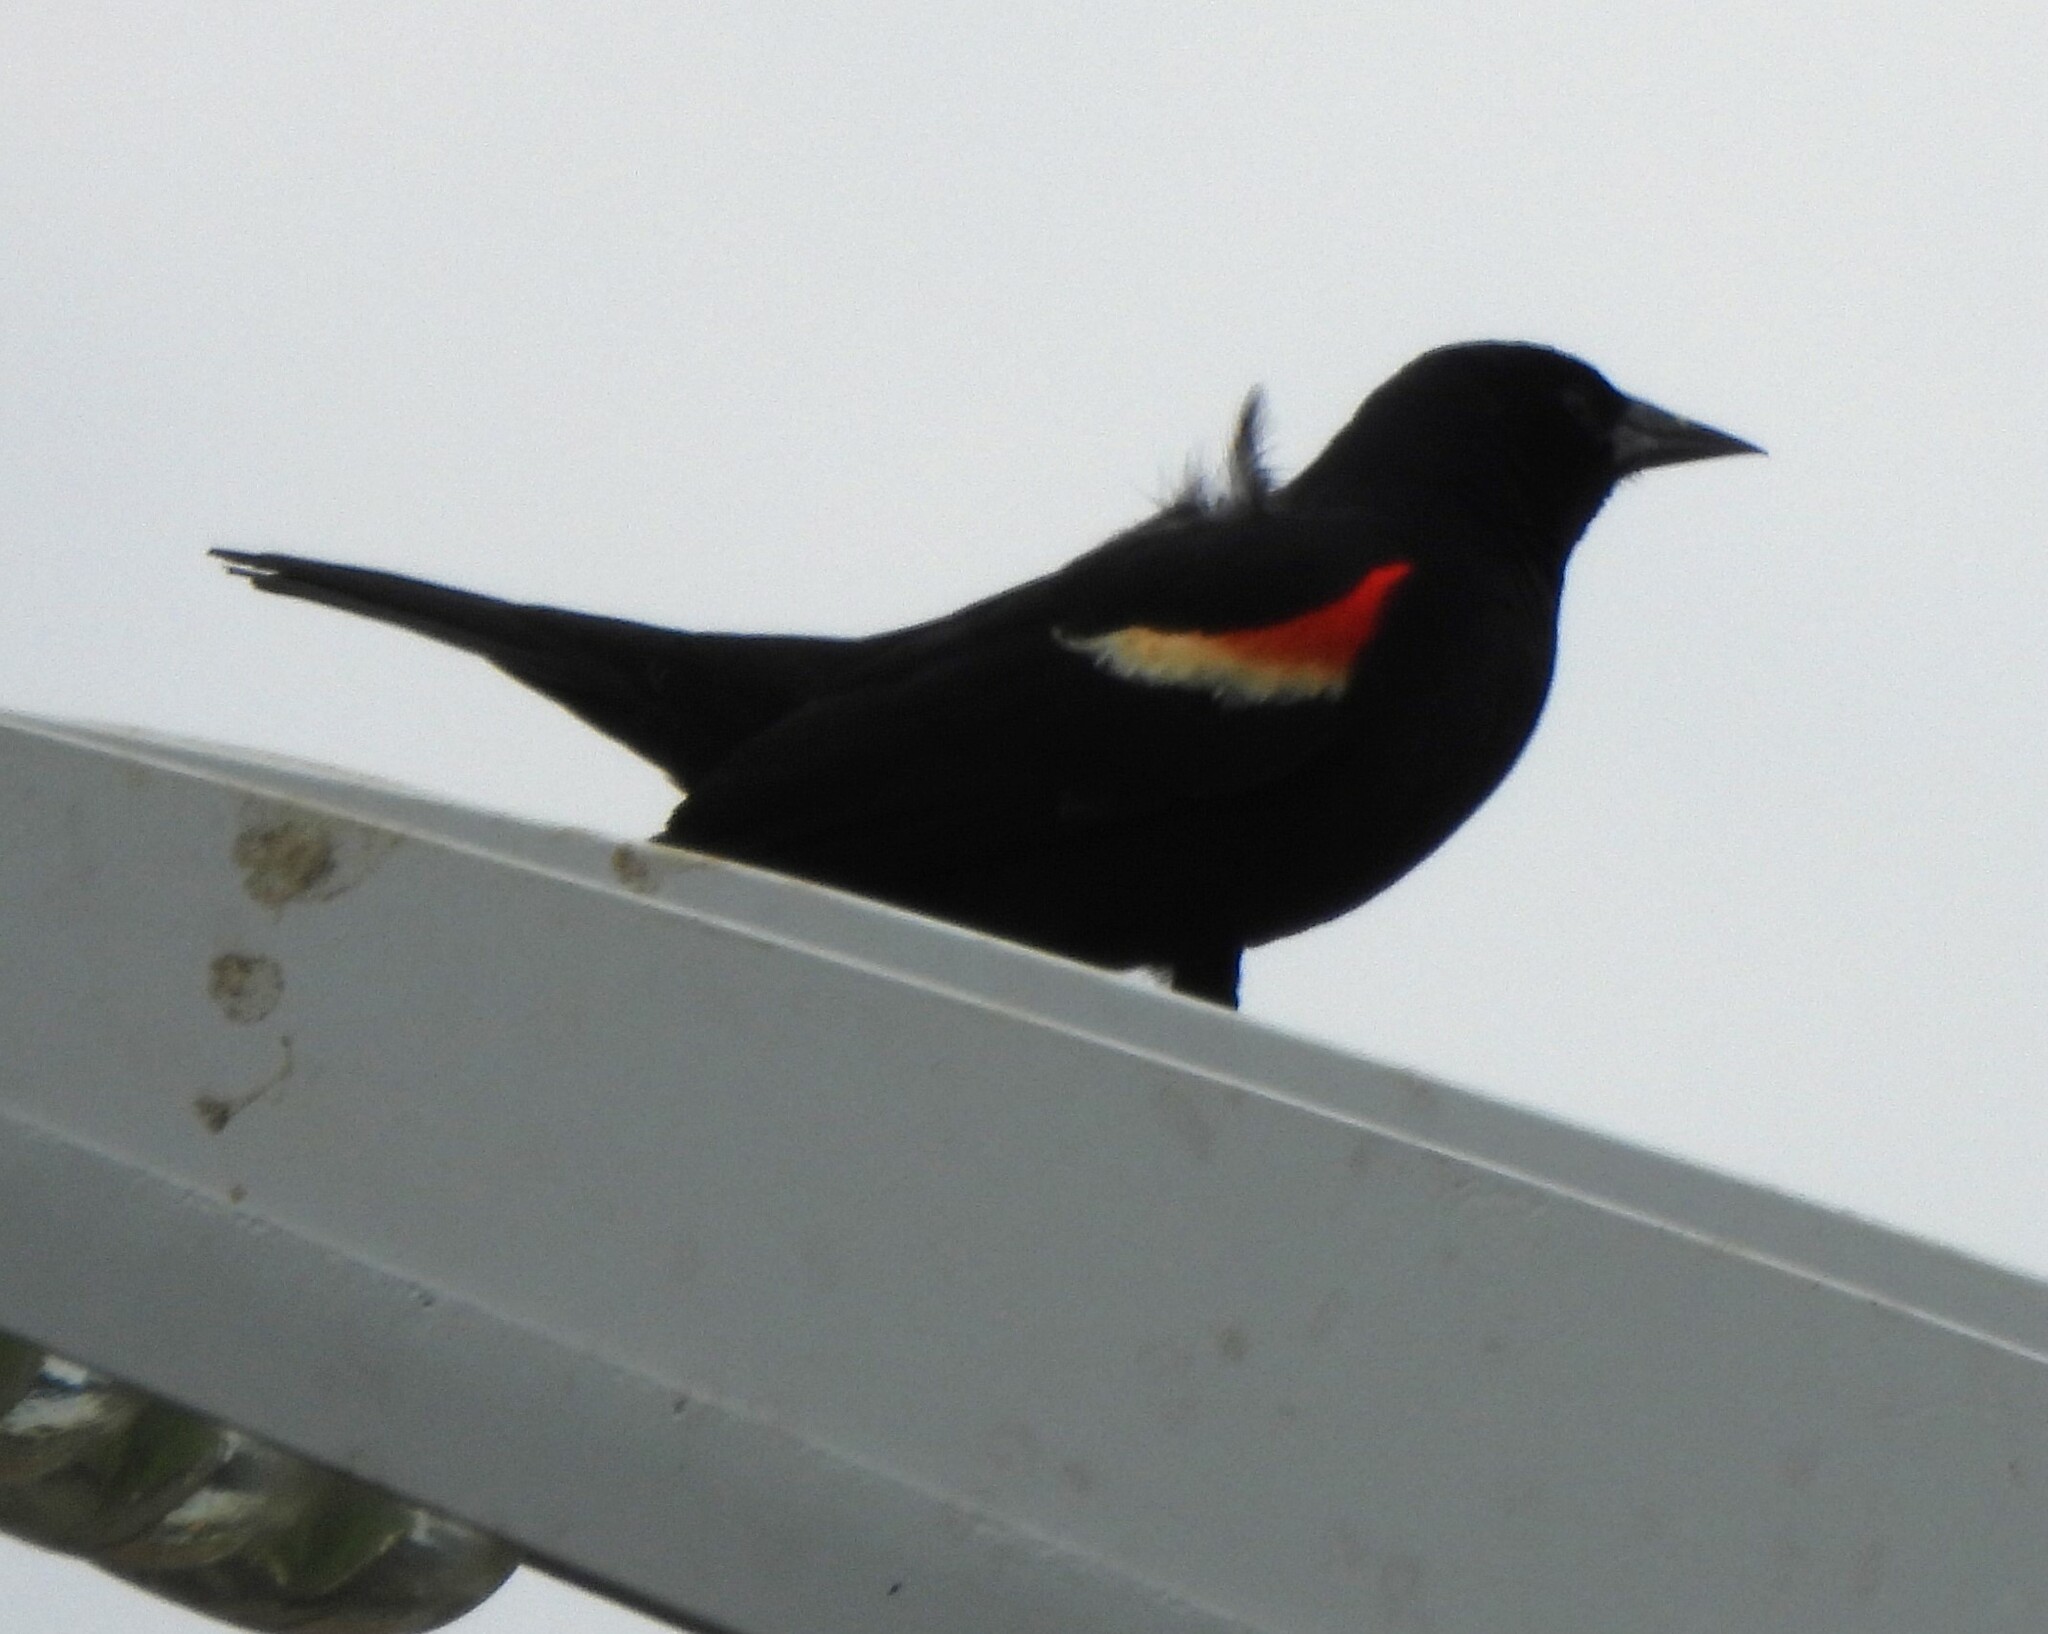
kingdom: Animalia
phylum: Chordata
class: Aves
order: Passeriformes
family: Icteridae
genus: Agelaius
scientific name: Agelaius phoeniceus
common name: Red-winged blackbird
